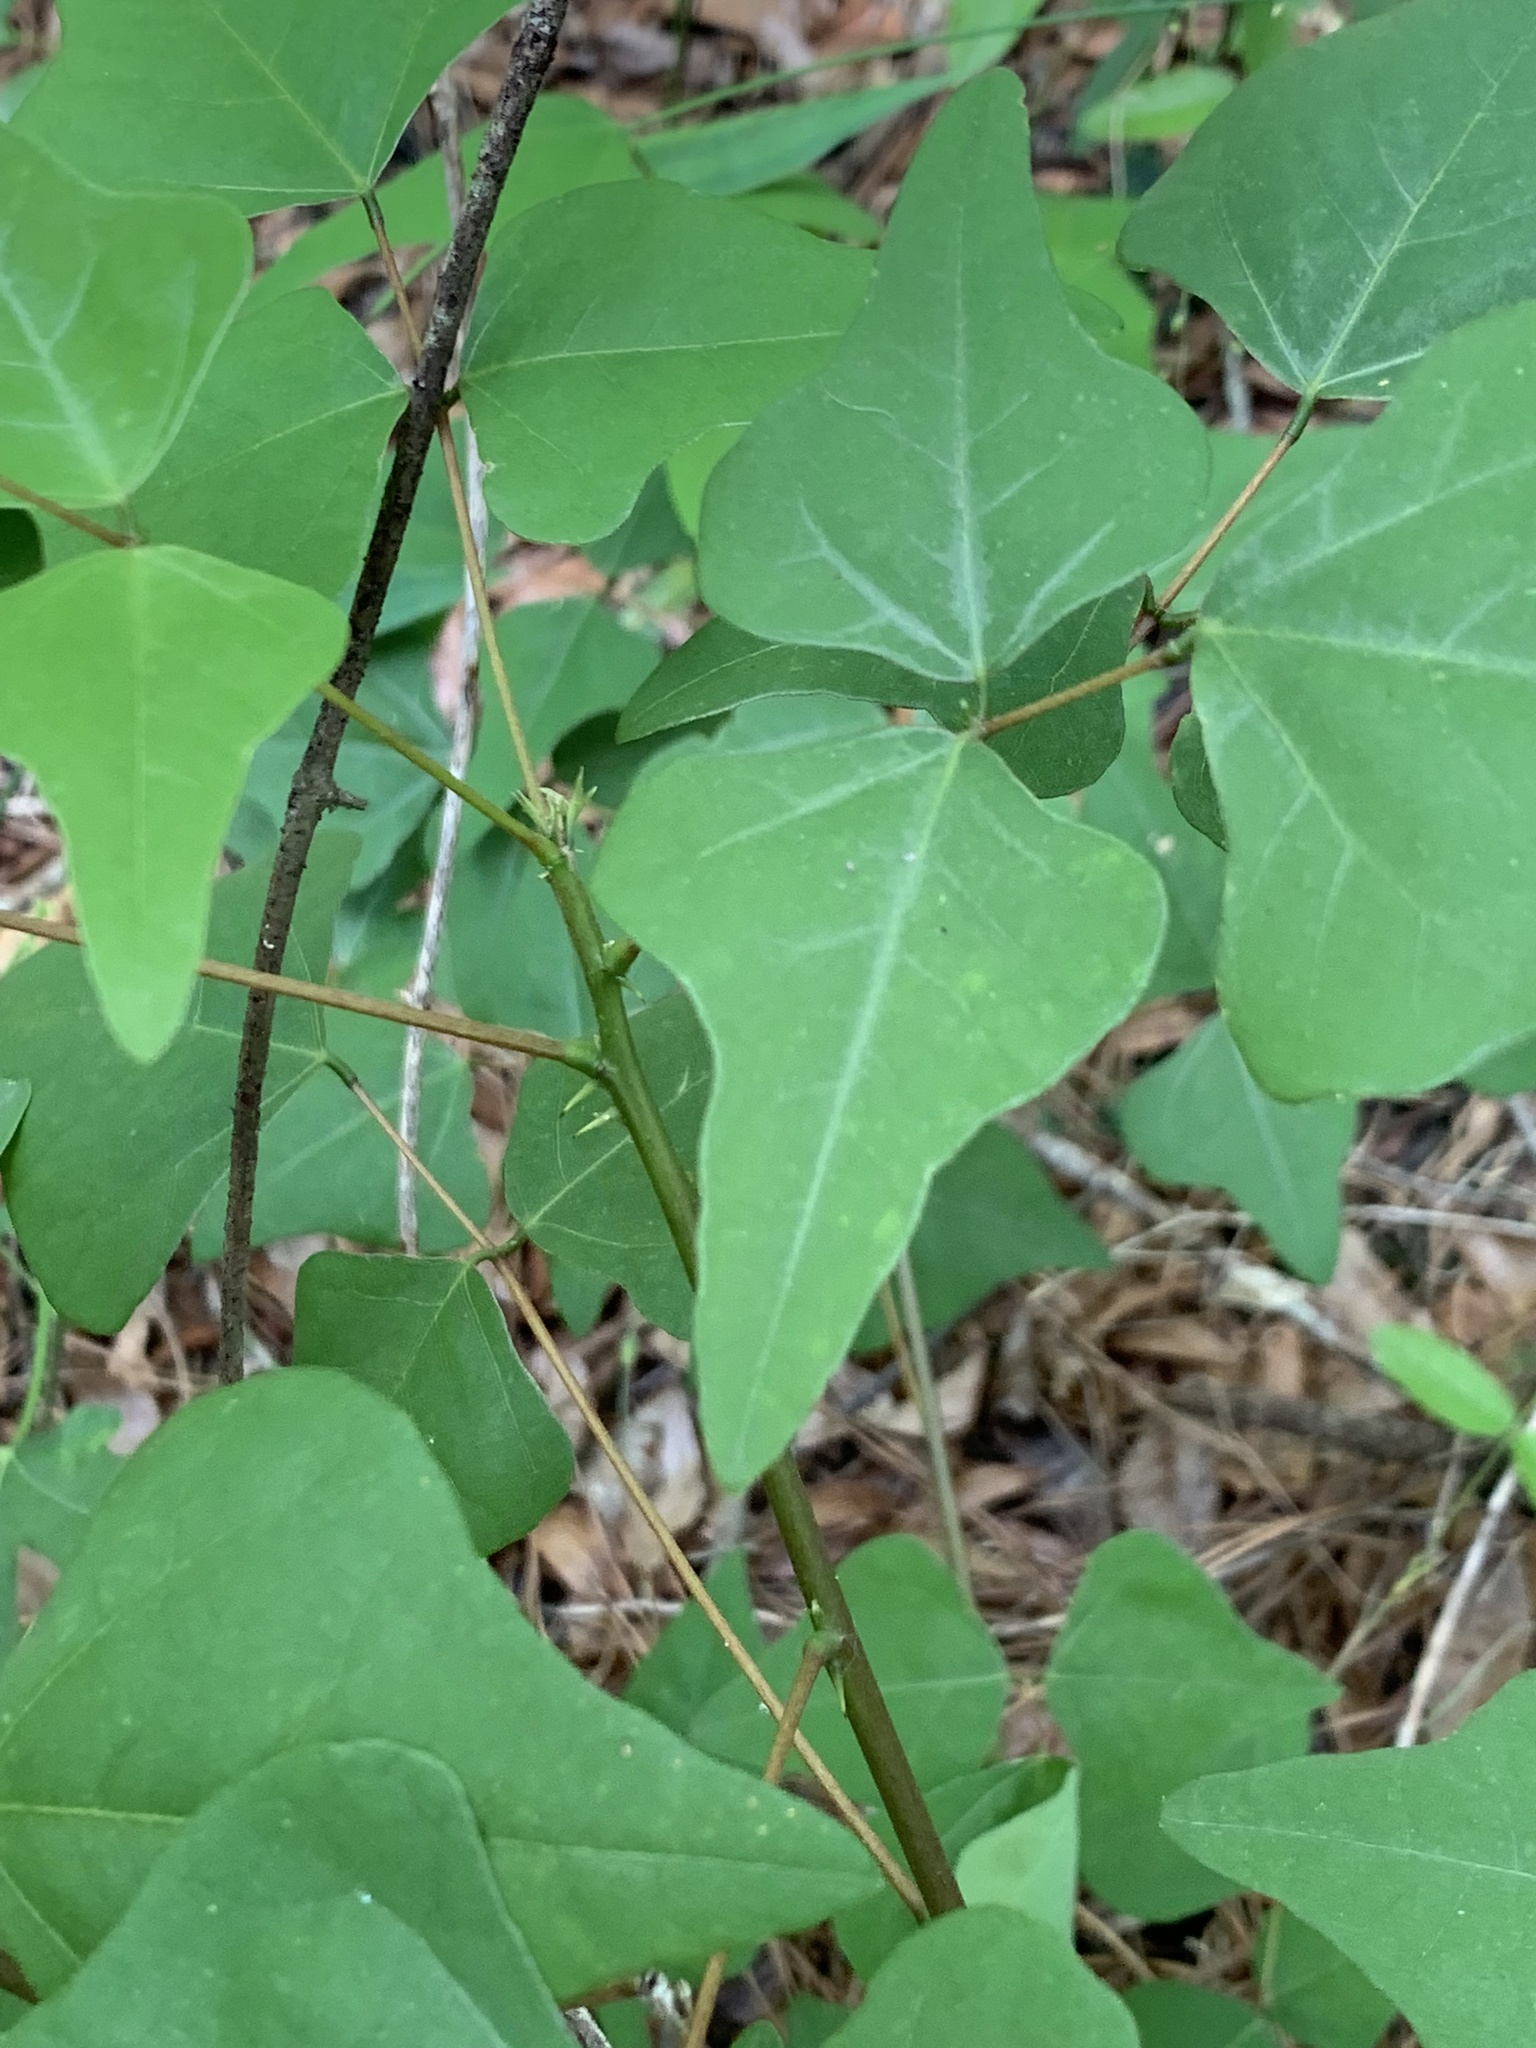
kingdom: Plantae
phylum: Tracheophyta
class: Magnoliopsida
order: Fabales
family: Fabaceae
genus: Erythrina
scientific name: Erythrina herbacea
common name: Coral-bean
